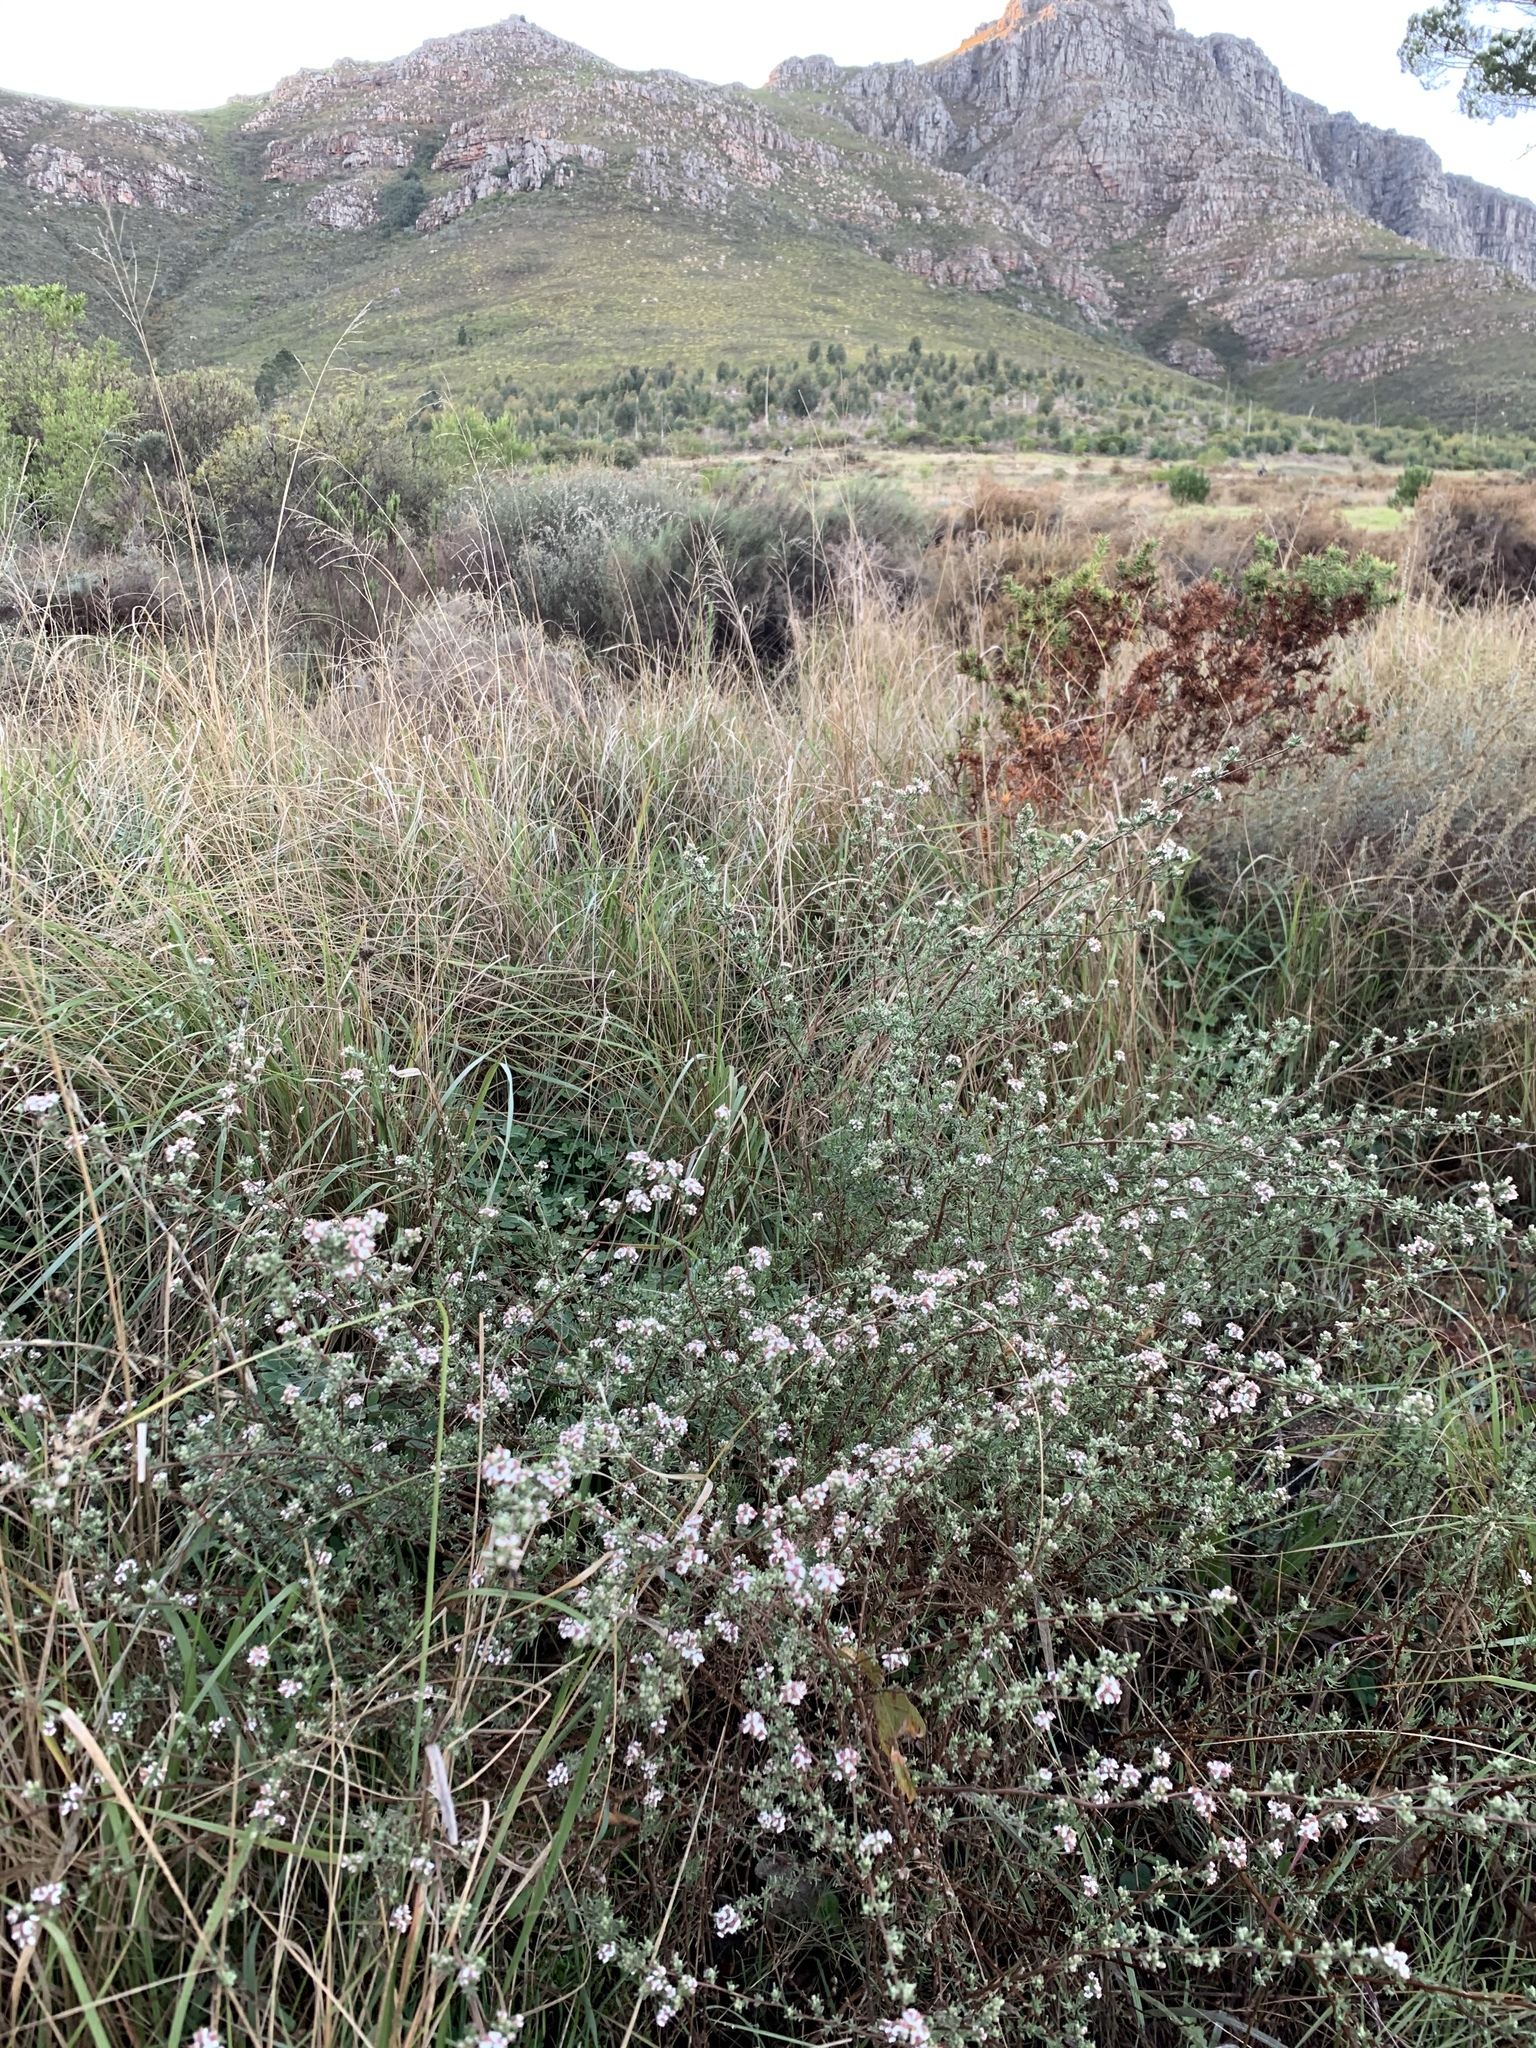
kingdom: Plantae
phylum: Tracheophyta
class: Magnoliopsida
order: Asterales
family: Asteraceae
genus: Eriocephalus
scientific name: Eriocephalus africanus
